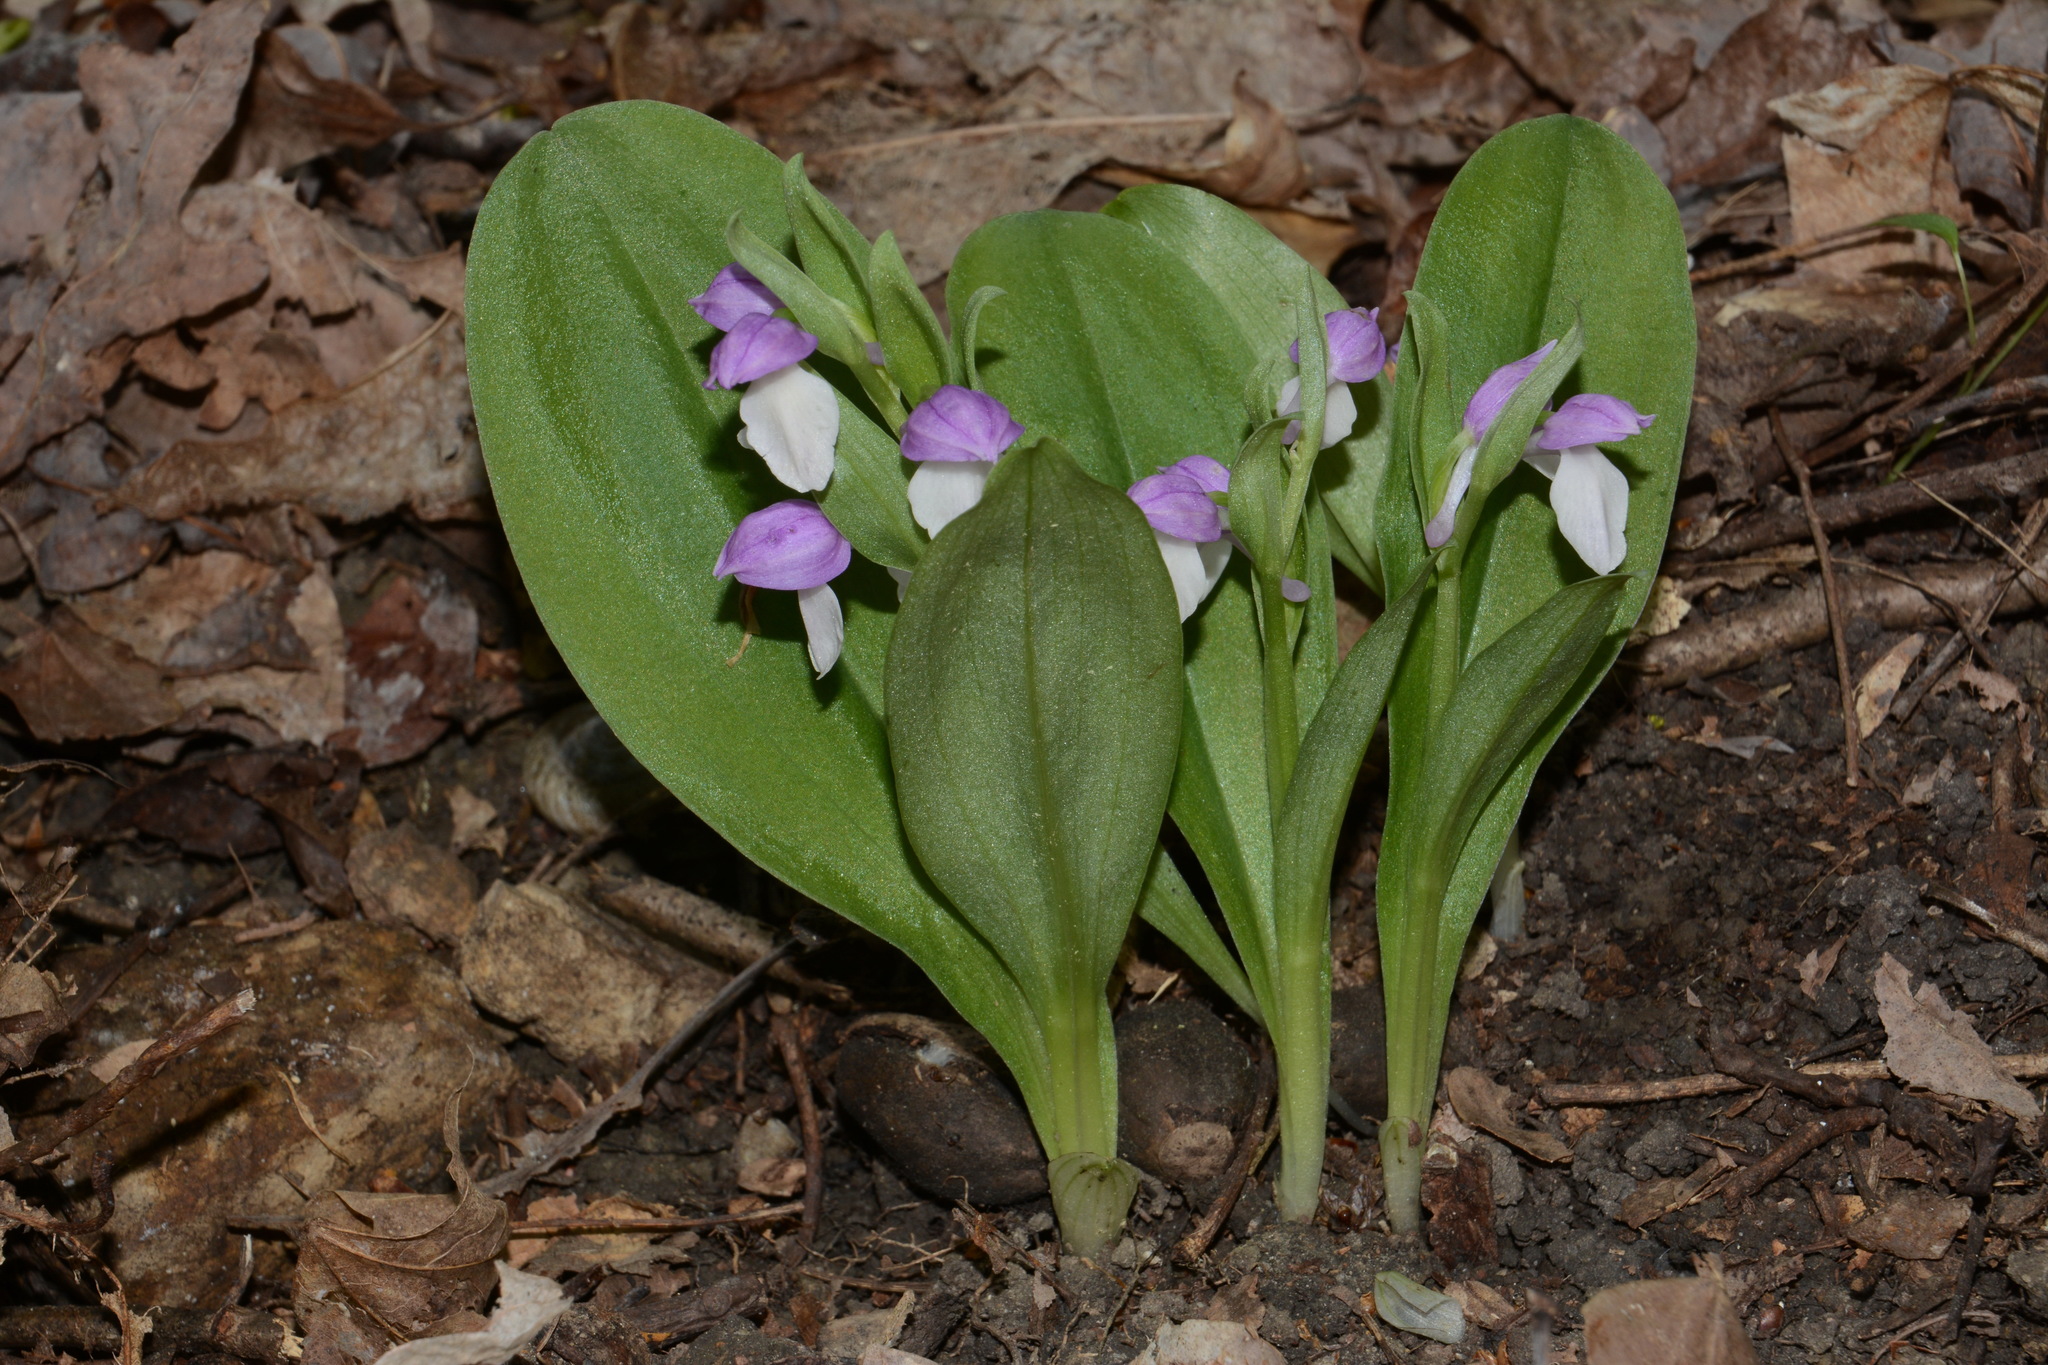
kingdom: Plantae
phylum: Tracheophyta
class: Liliopsida
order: Asparagales
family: Orchidaceae
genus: Galearis
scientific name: Galearis spectabilis
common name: Purple-hooded orchis
